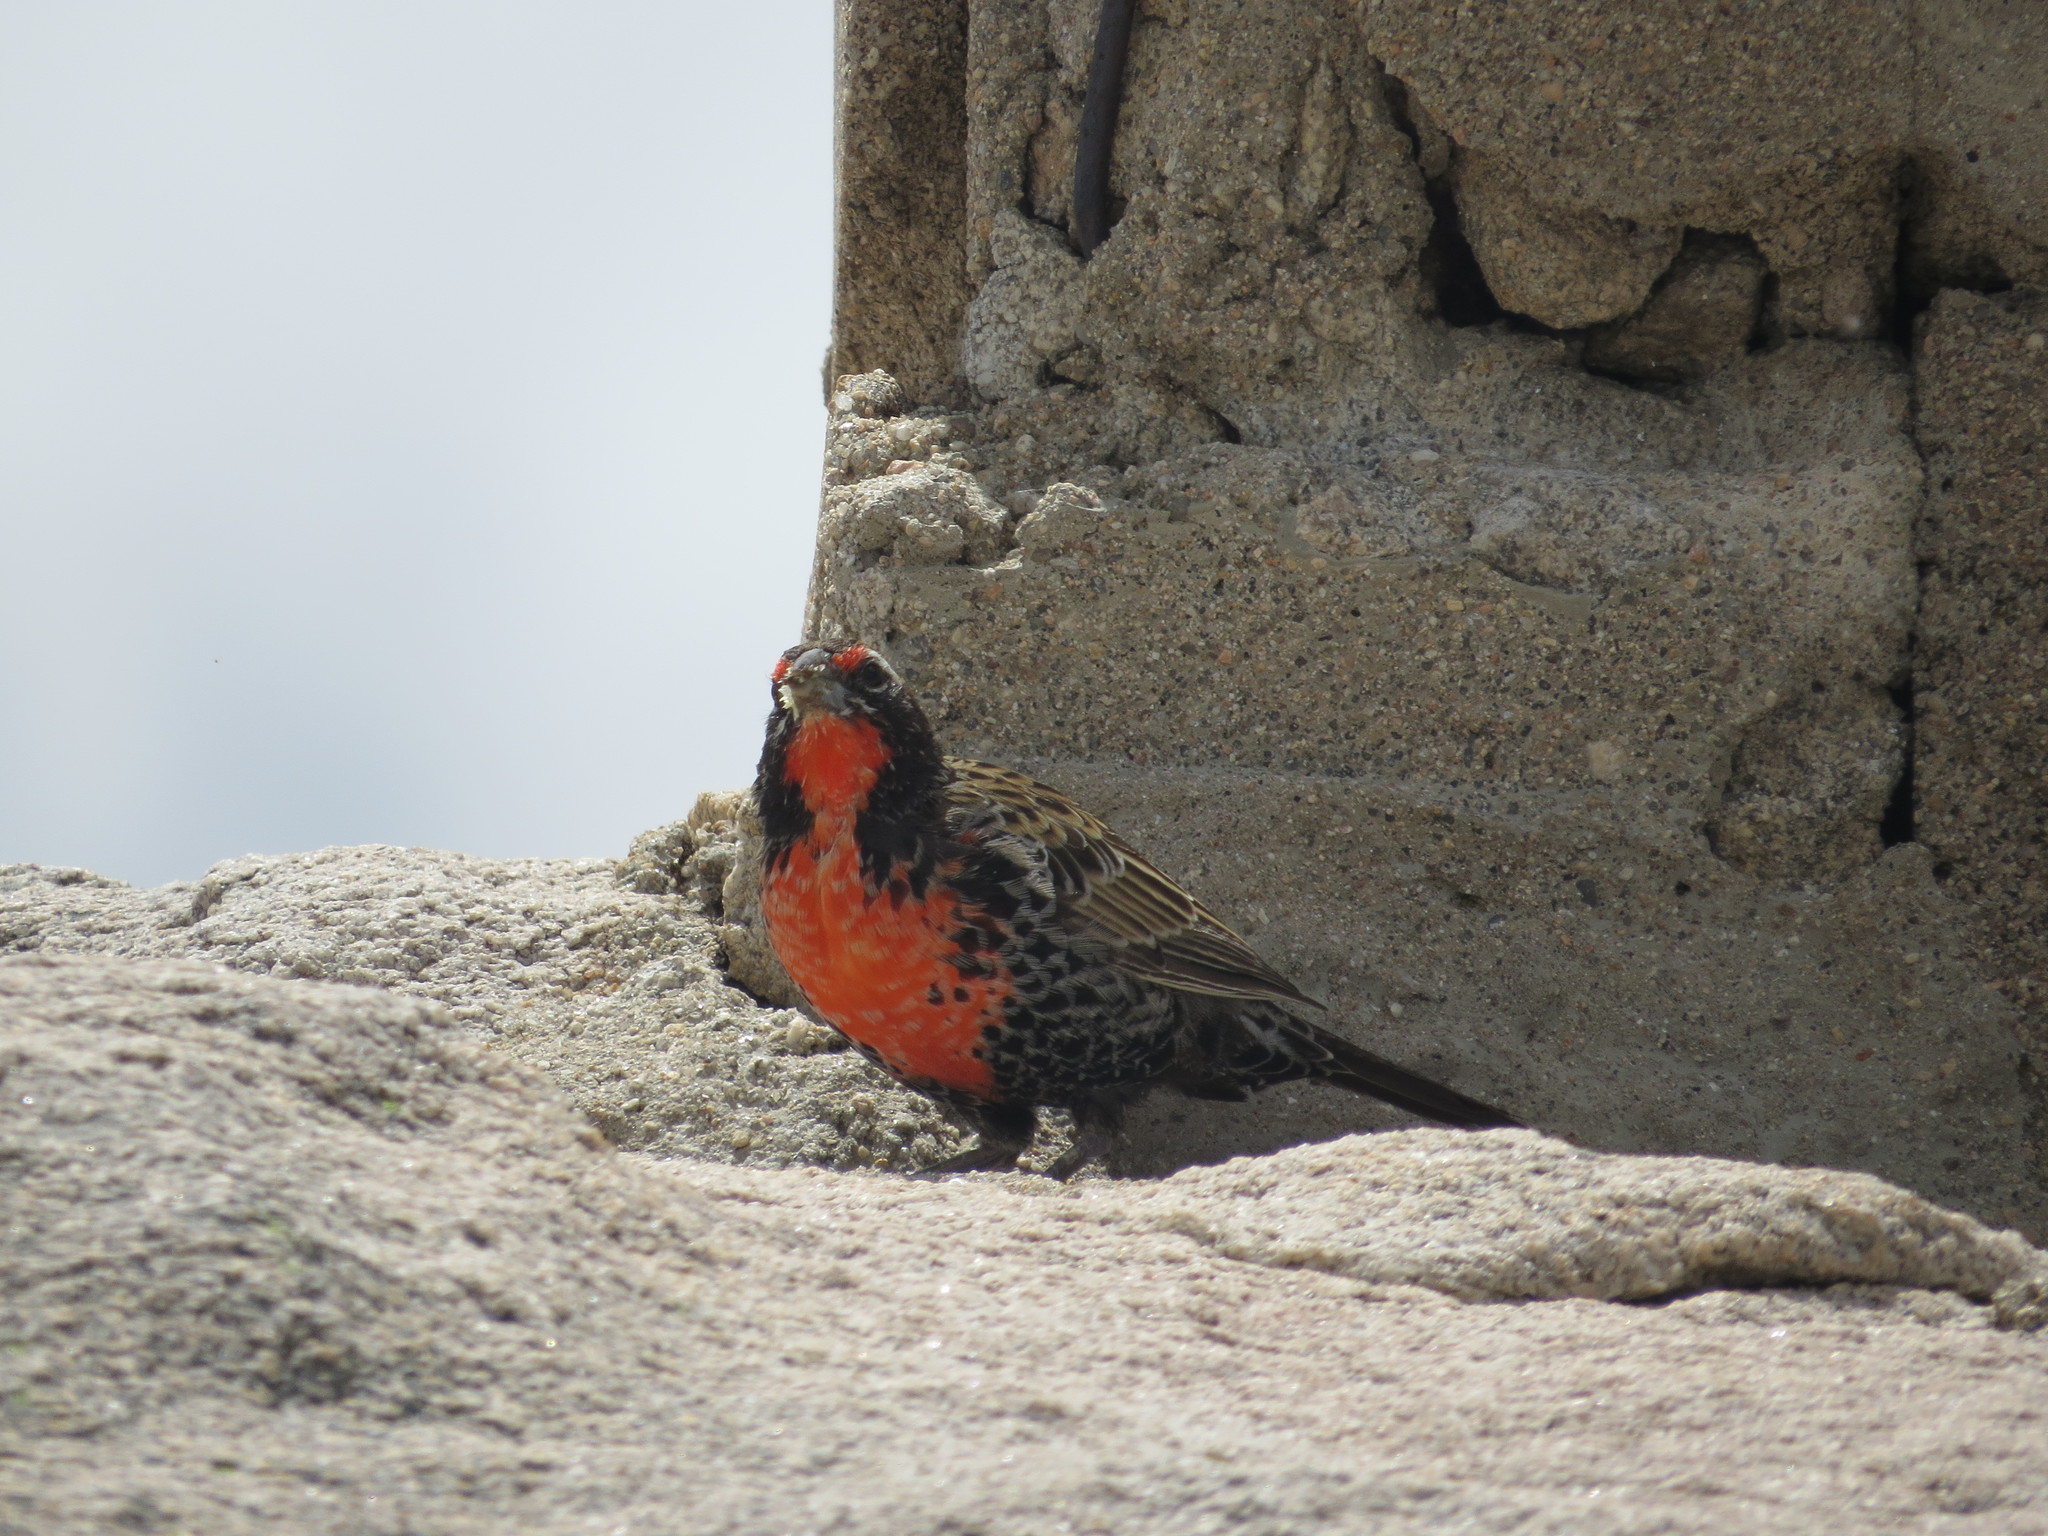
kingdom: Animalia
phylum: Chordata
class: Aves
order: Passeriformes
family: Icteridae
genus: Sturnella
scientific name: Sturnella loyca
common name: Long-tailed meadowlark
